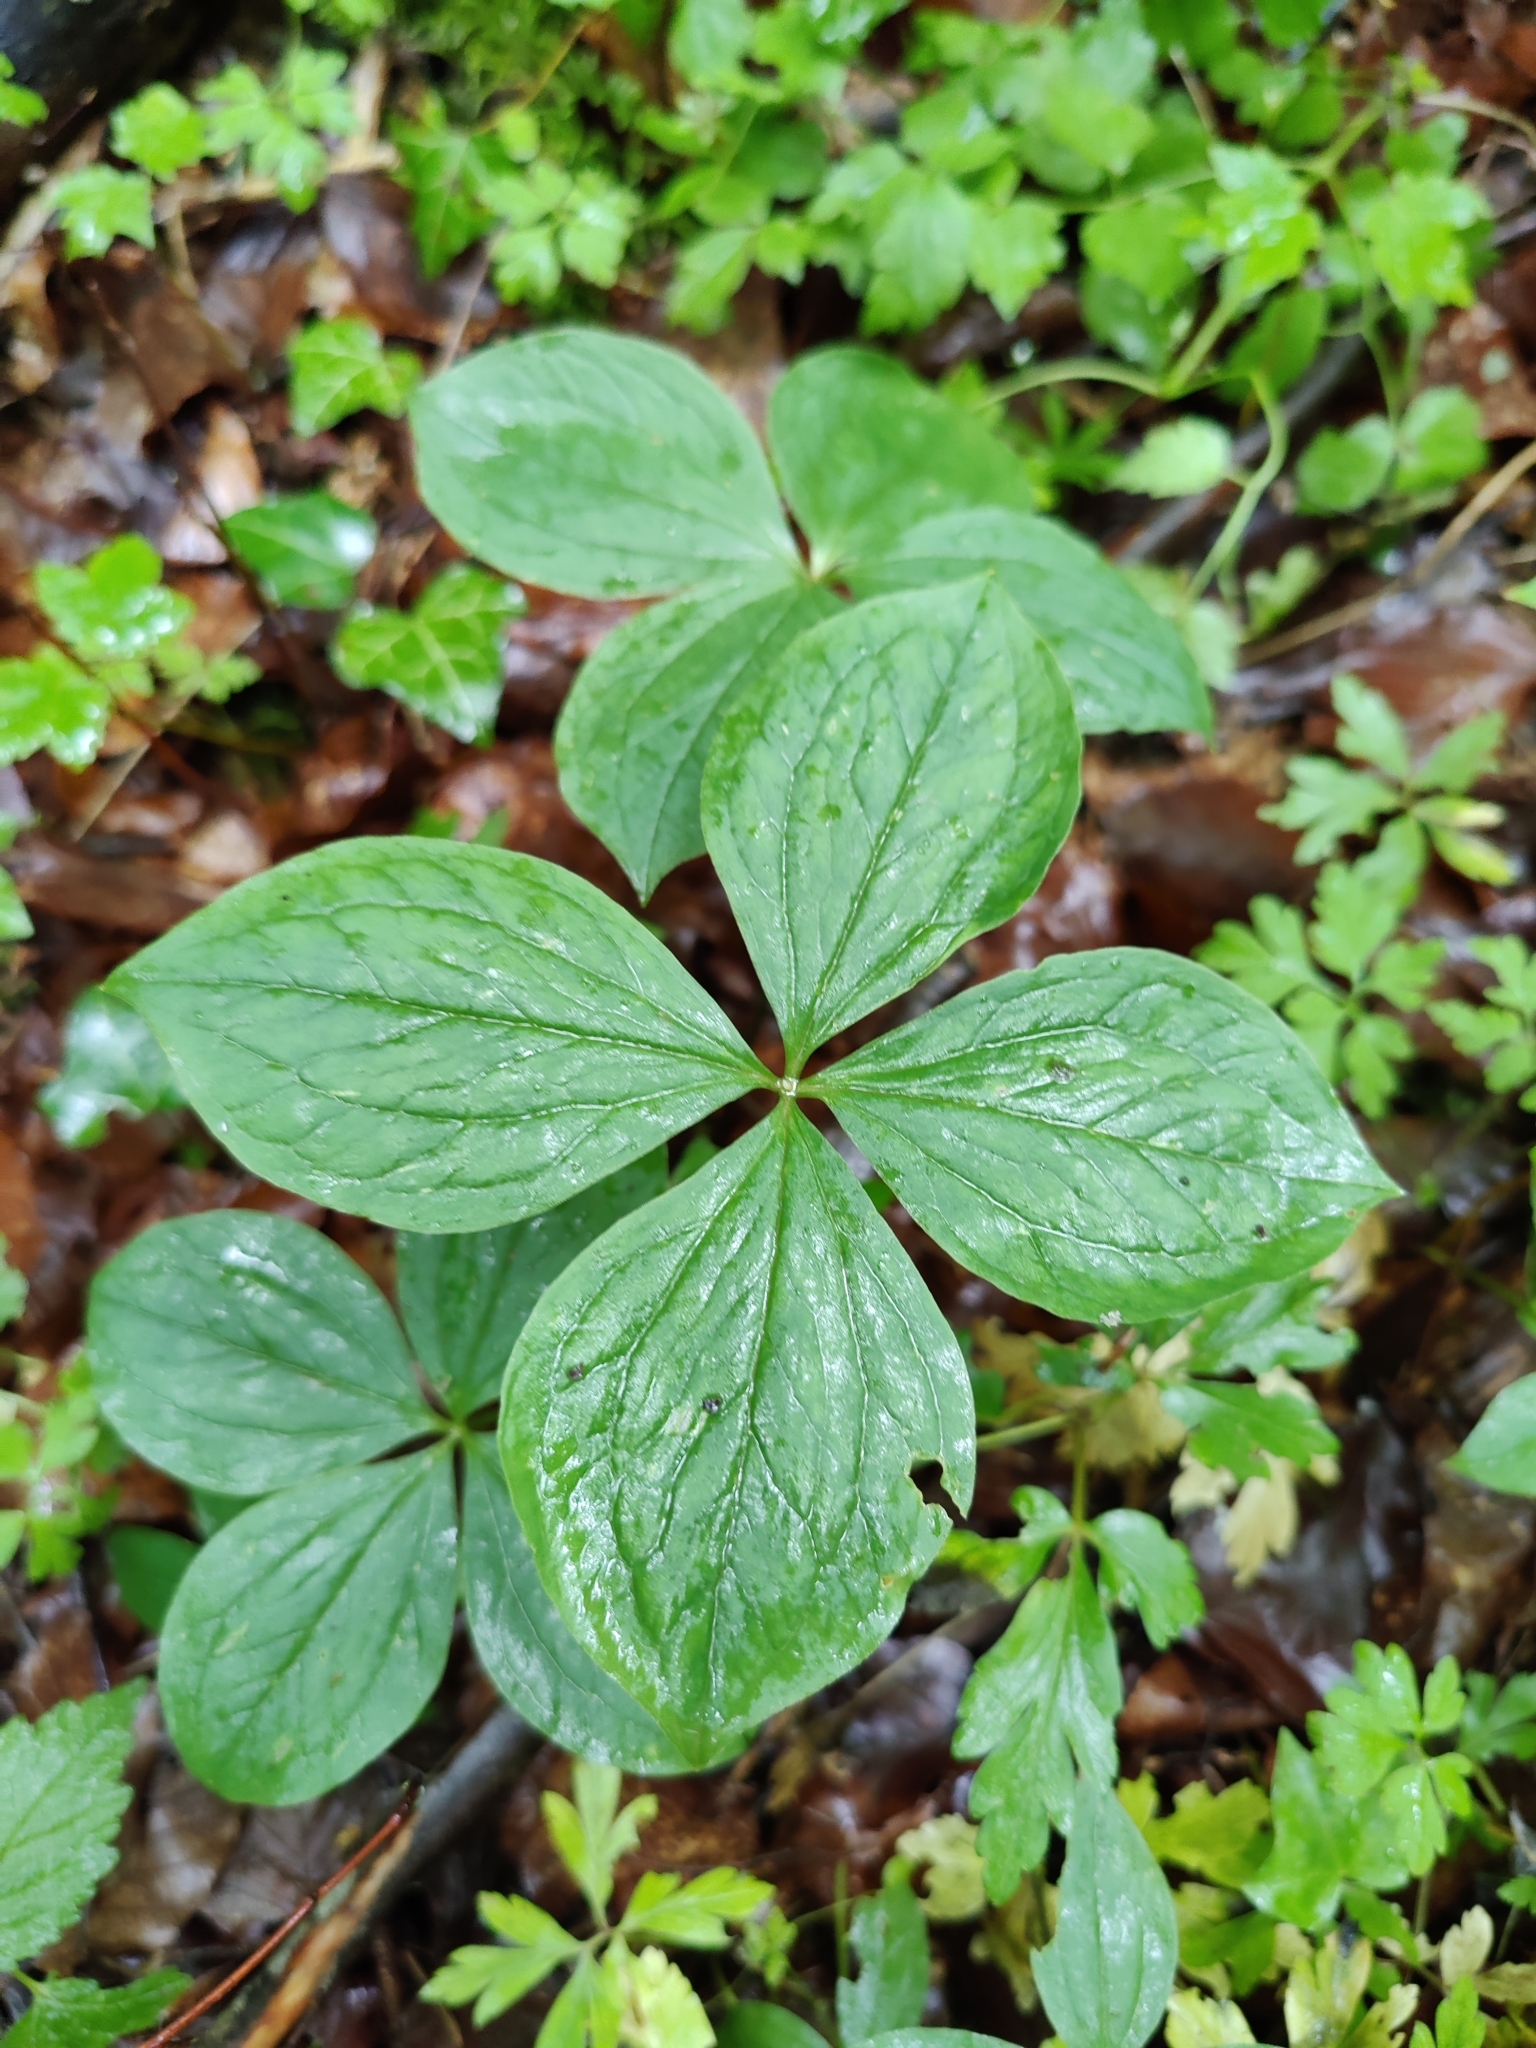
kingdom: Plantae
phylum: Tracheophyta
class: Liliopsida
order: Liliales
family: Melanthiaceae
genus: Paris
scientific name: Paris quadrifolia
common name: Herb-paris
